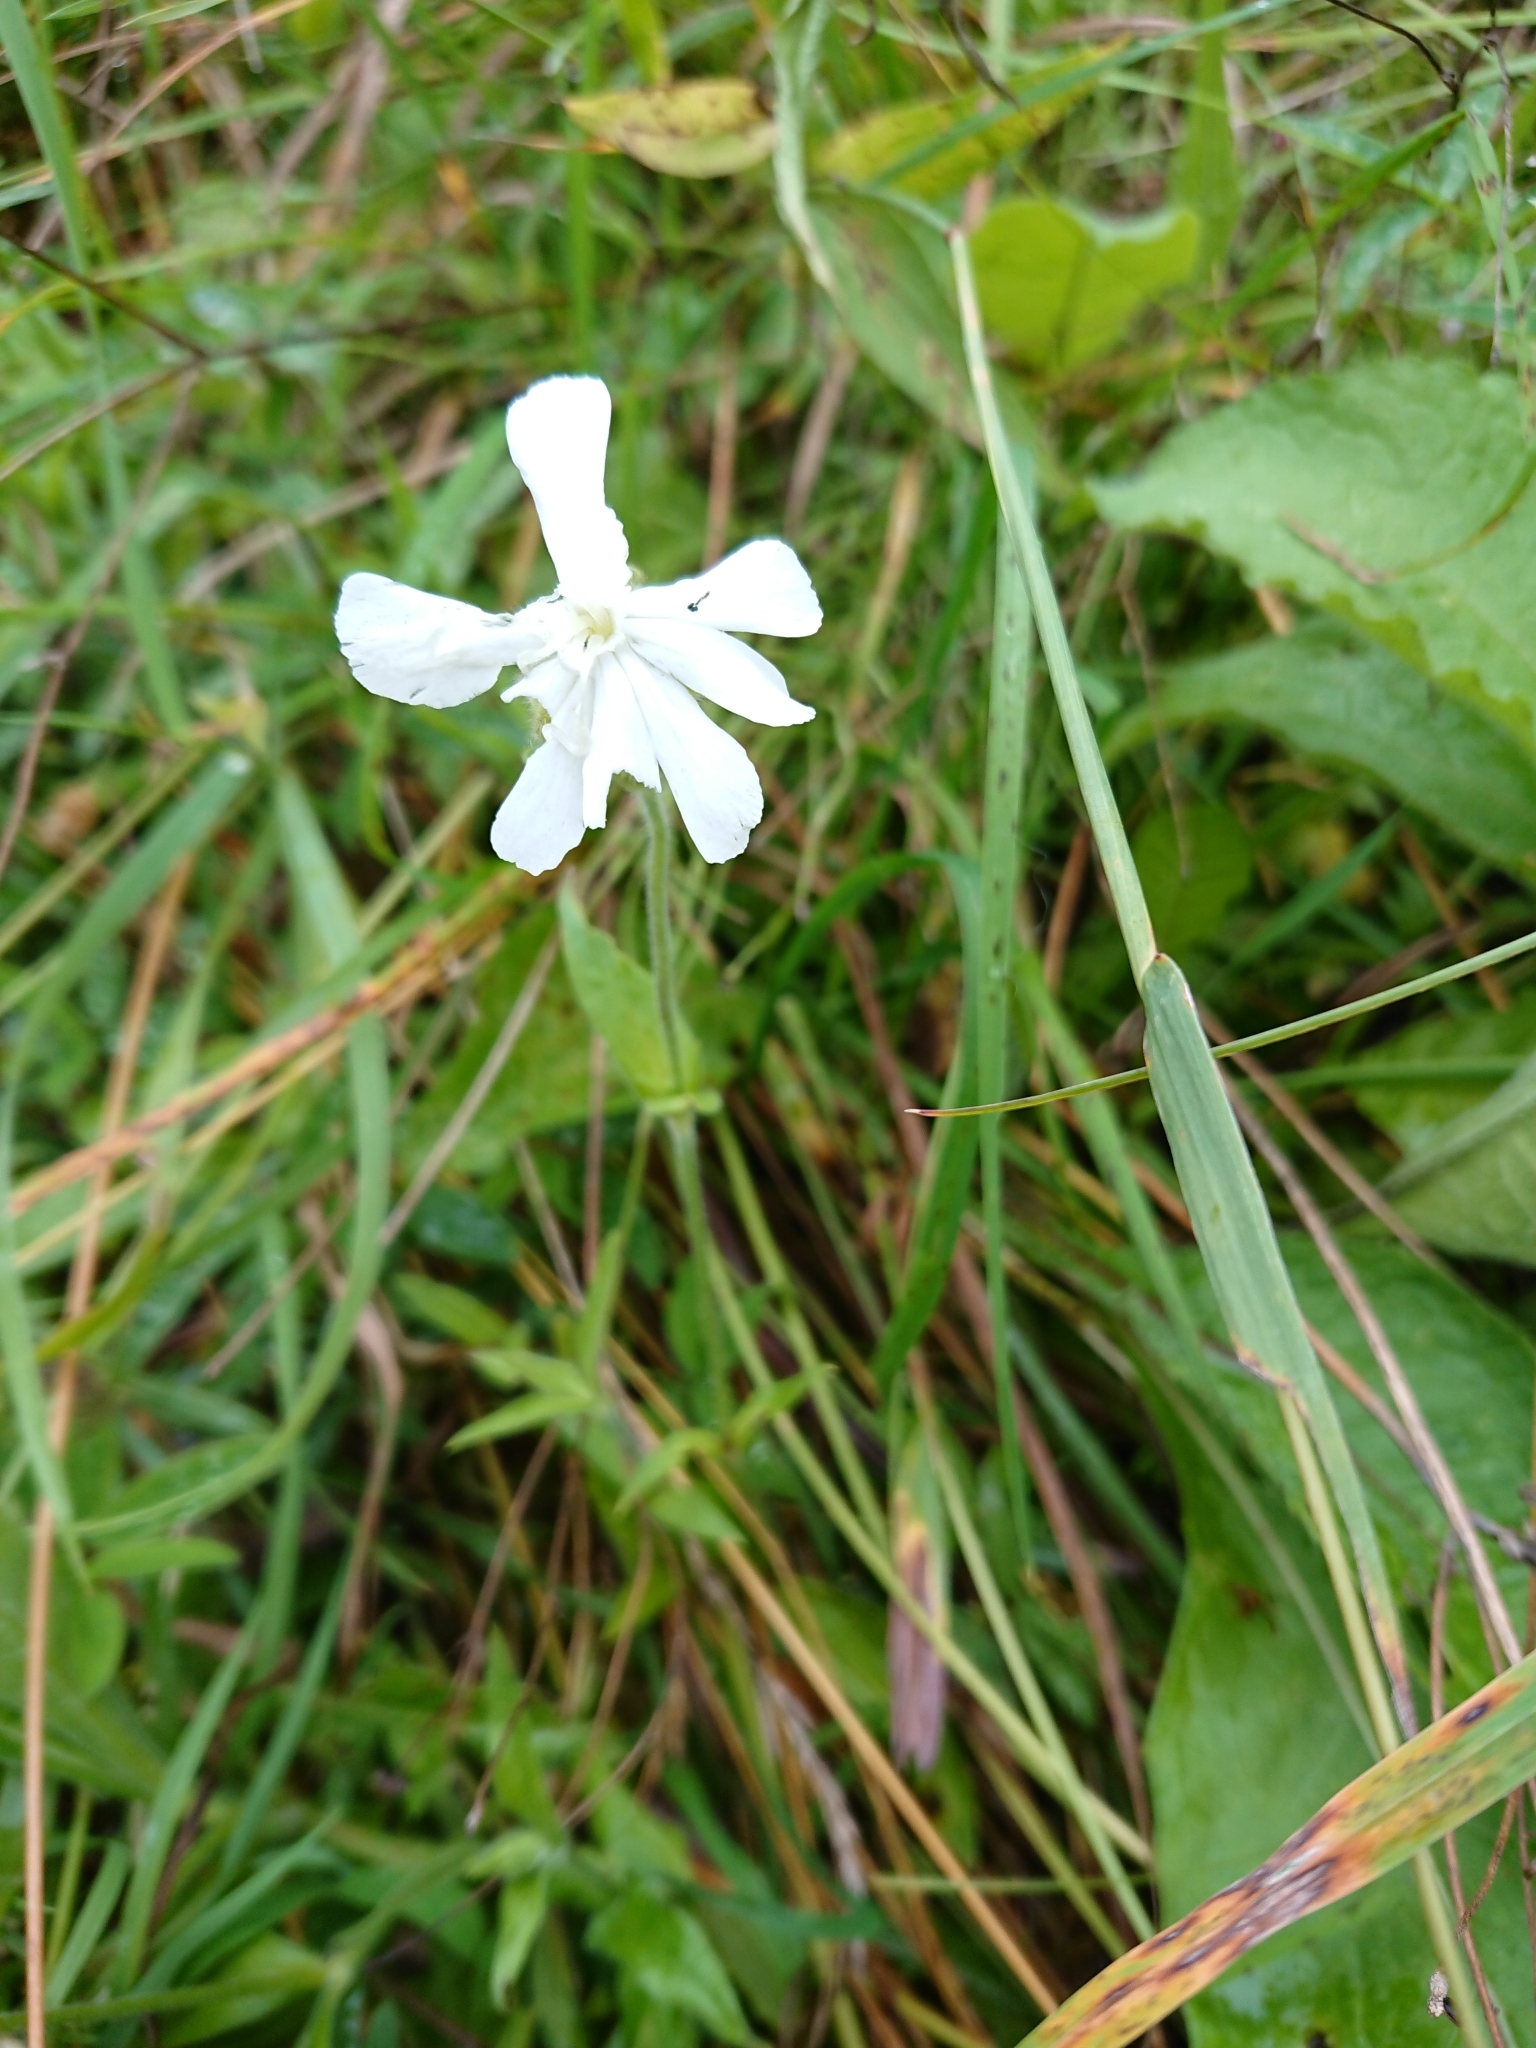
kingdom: Plantae
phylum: Tracheophyta
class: Magnoliopsida
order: Caryophyllales
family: Caryophyllaceae
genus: Silene
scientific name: Silene latifolia
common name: White campion
